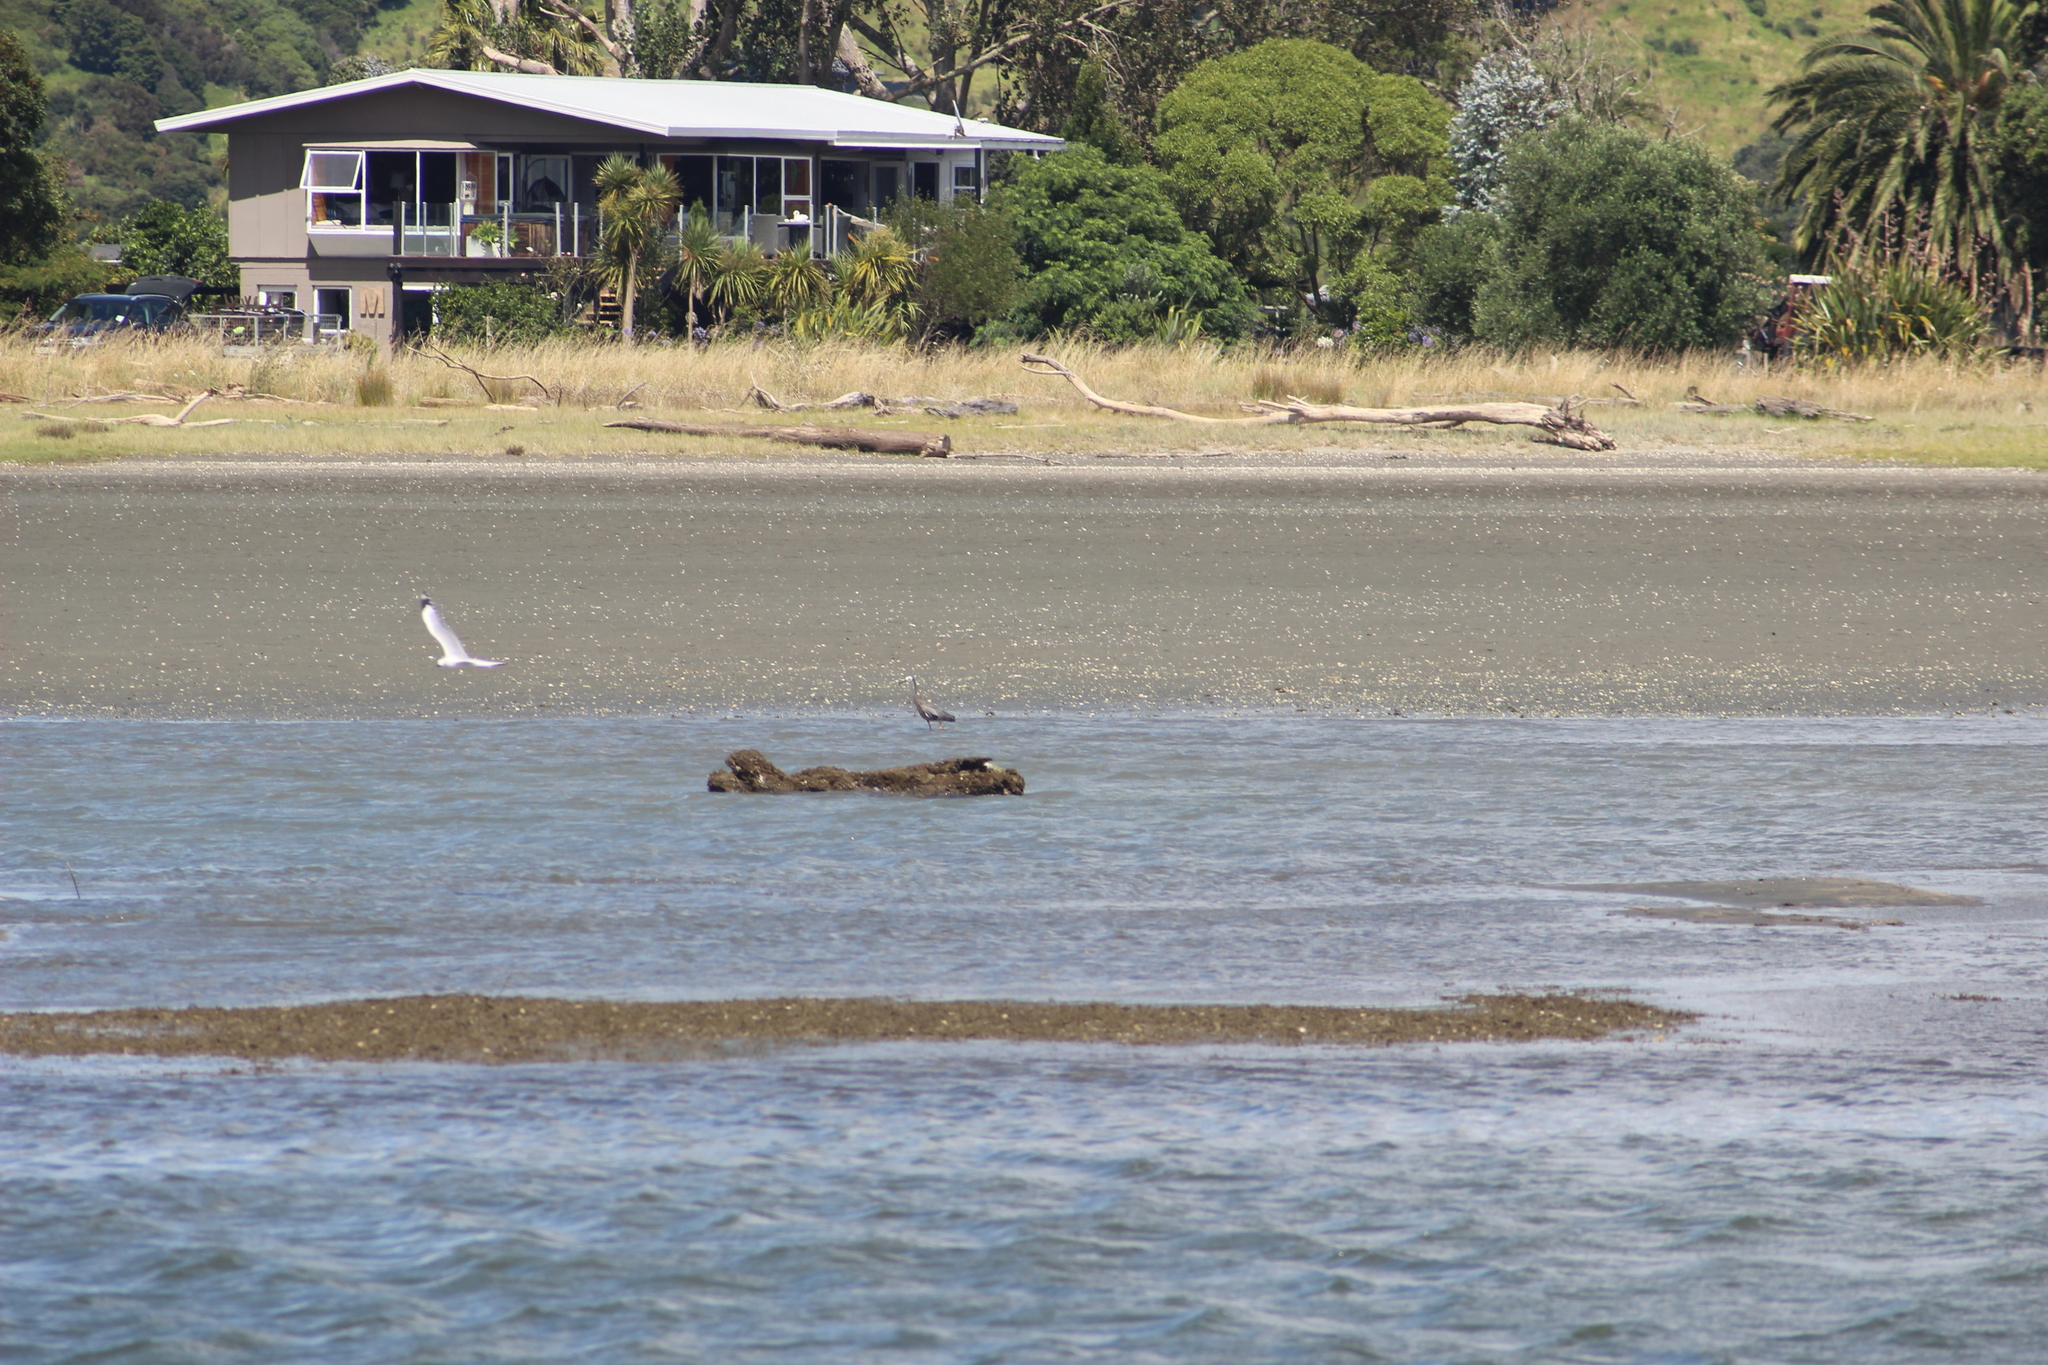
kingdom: Animalia
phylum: Chordata
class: Aves
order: Pelecaniformes
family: Ardeidae
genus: Egretta
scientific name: Egretta novaehollandiae
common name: White-faced heron
